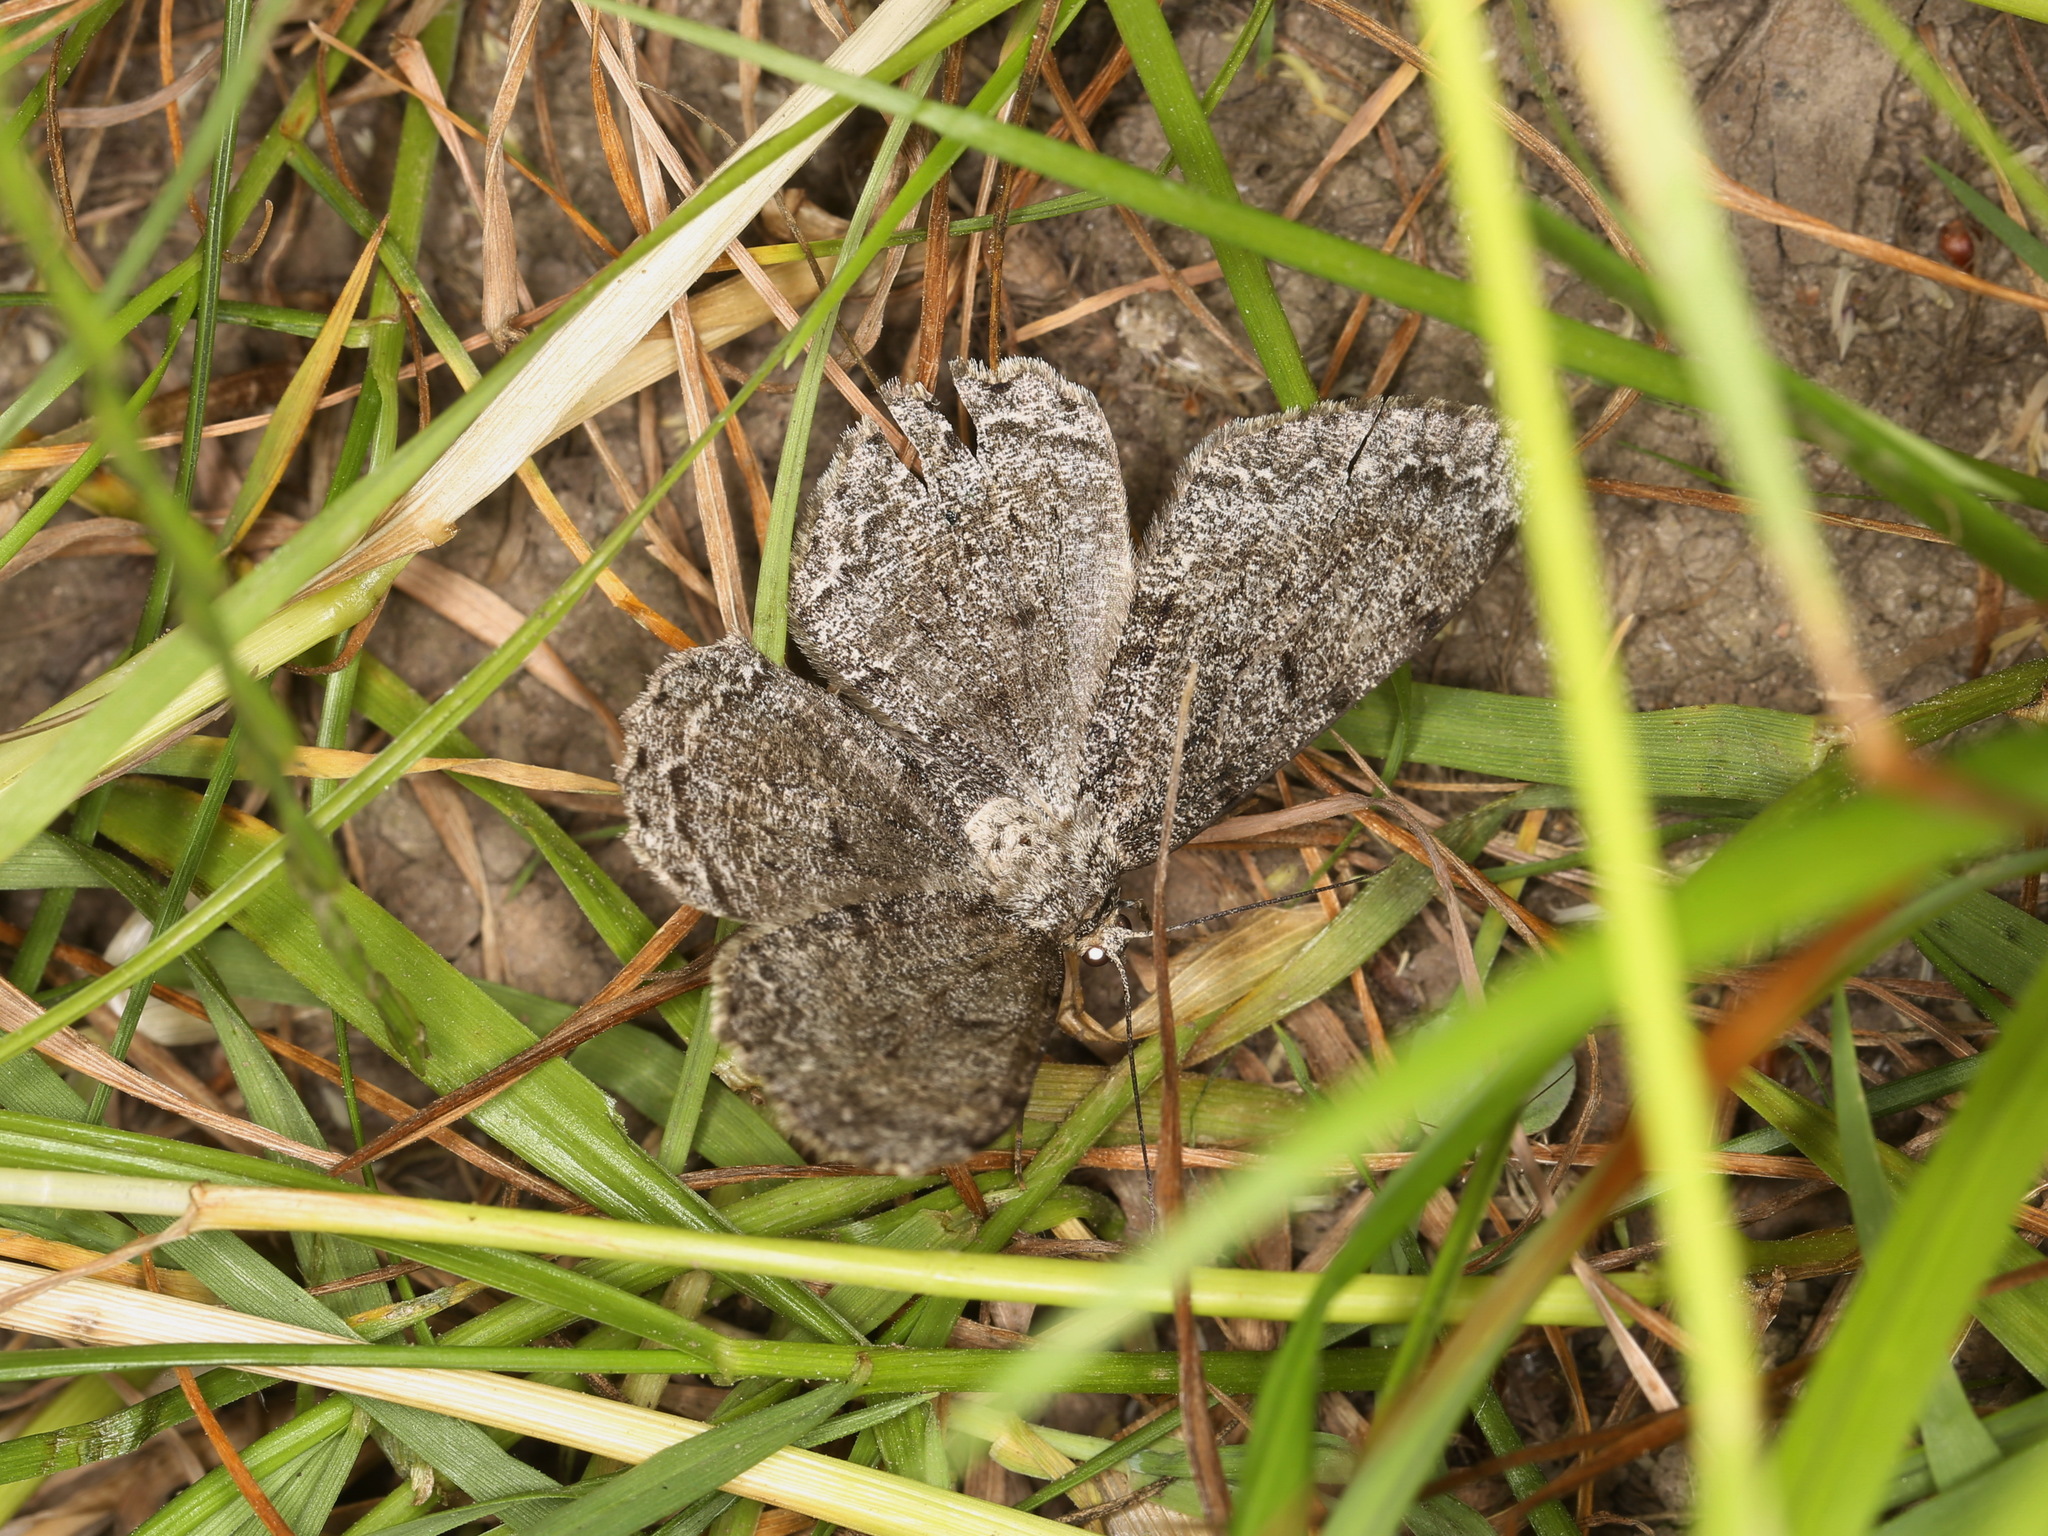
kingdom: Animalia
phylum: Arthropoda
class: Insecta
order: Lepidoptera
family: Geometridae
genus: Hypomecis
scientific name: Hypomecis roboraria
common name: Great oak beauty
